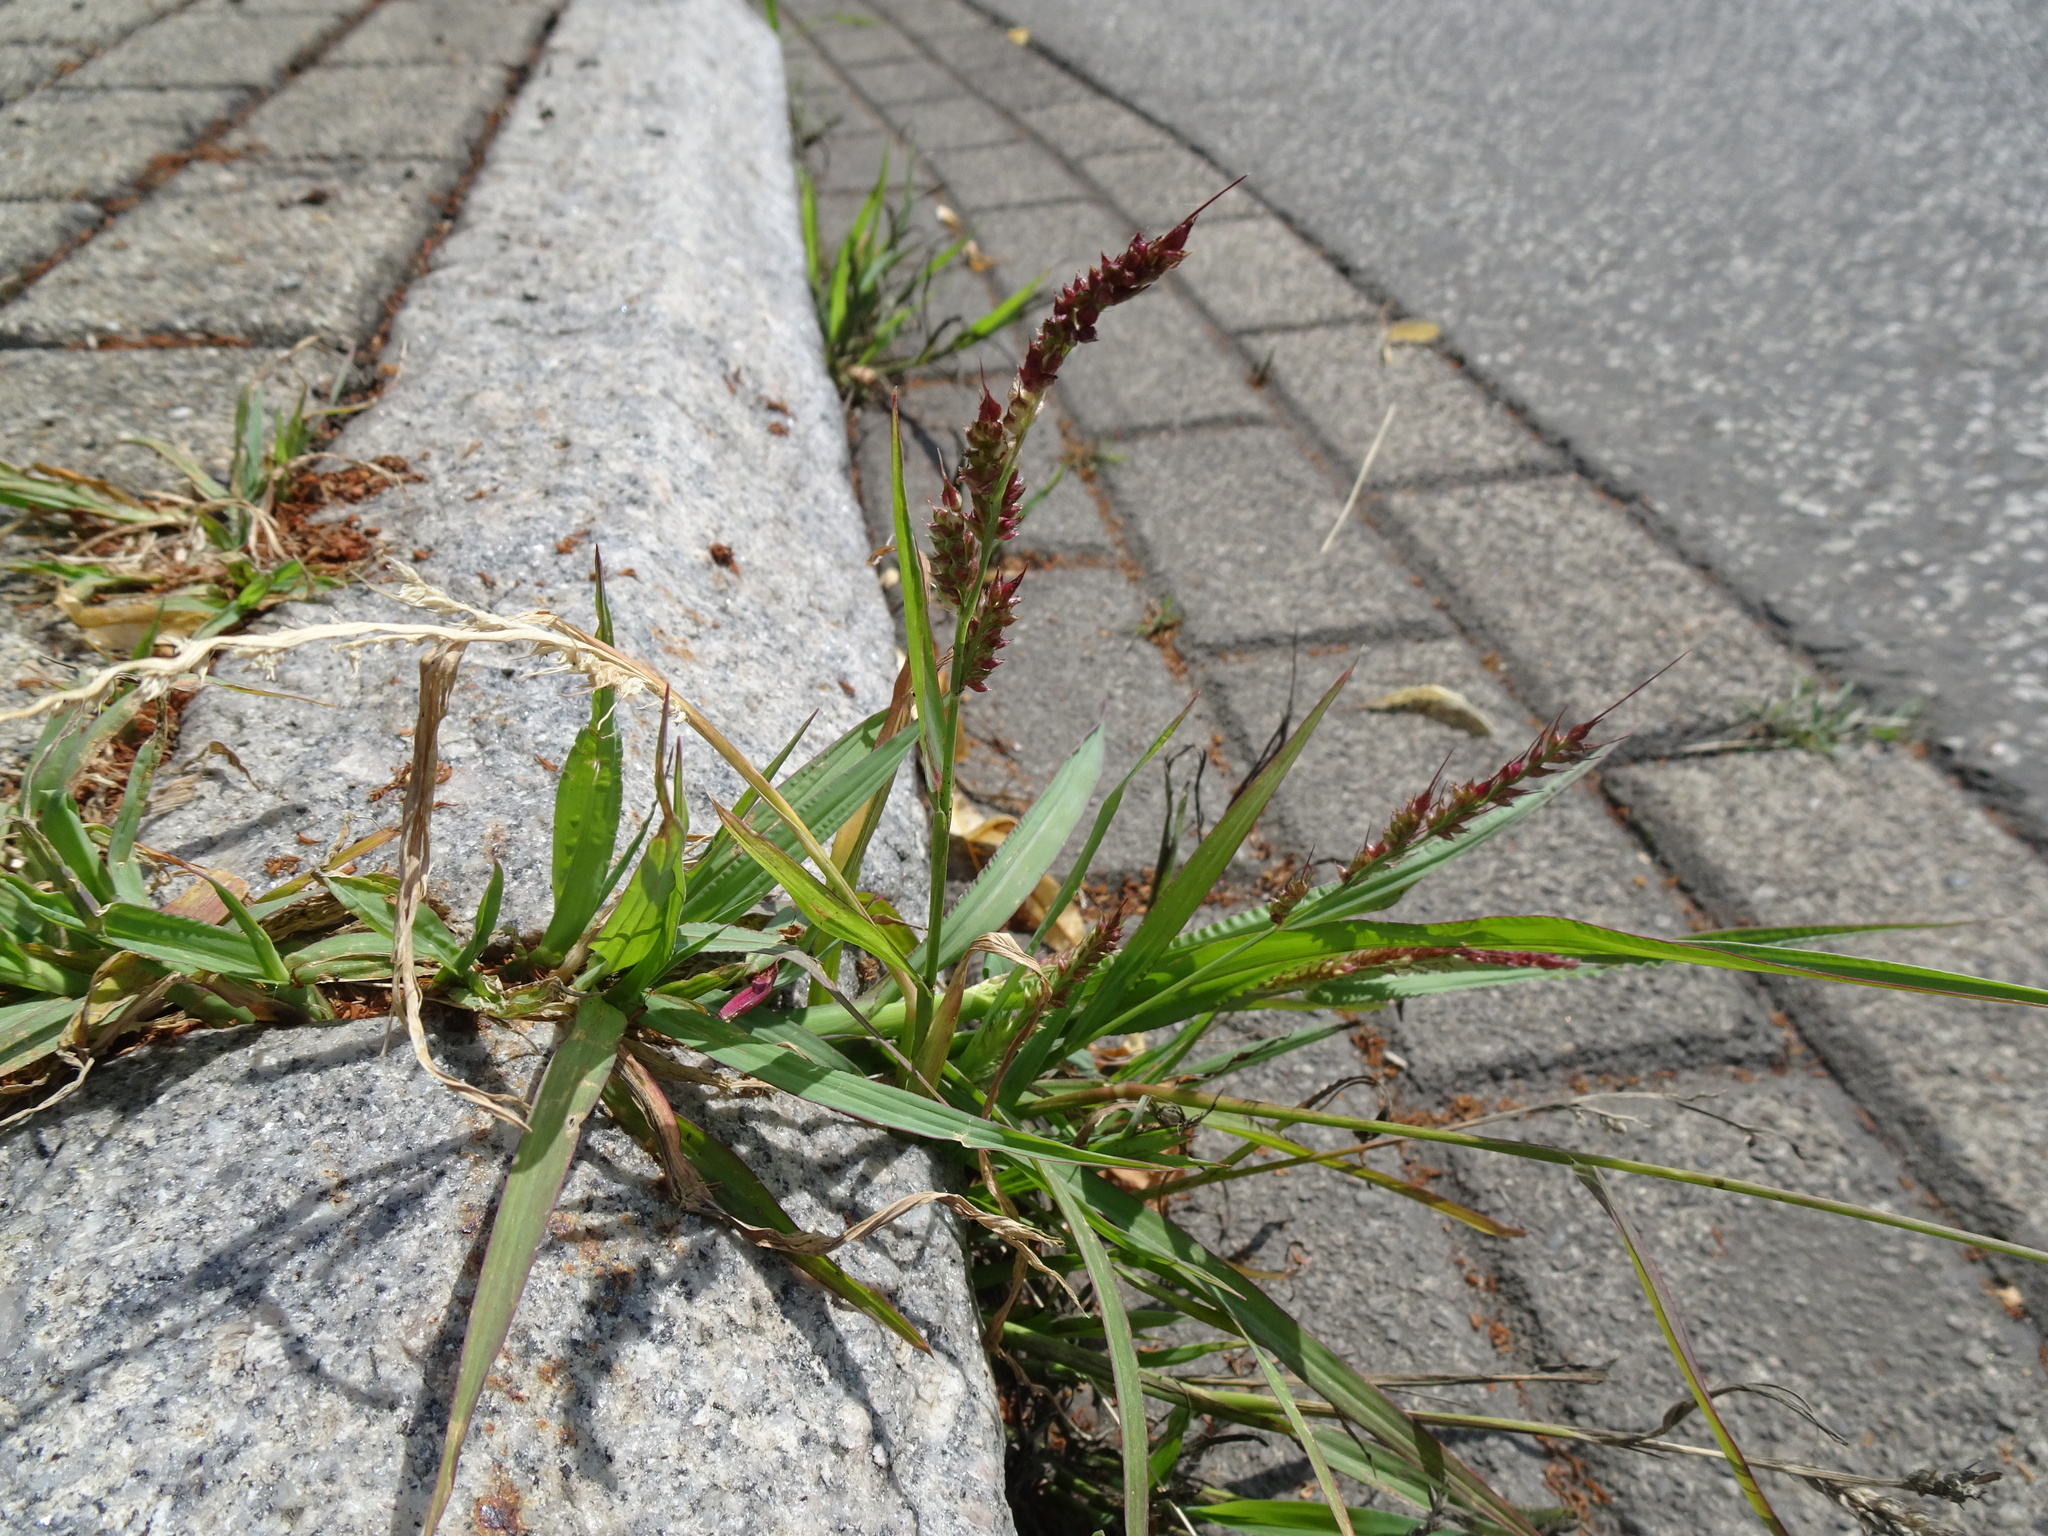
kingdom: Plantae
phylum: Tracheophyta
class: Liliopsida
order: Poales
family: Poaceae
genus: Echinochloa
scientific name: Echinochloa crus-galli
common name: Cockspur
